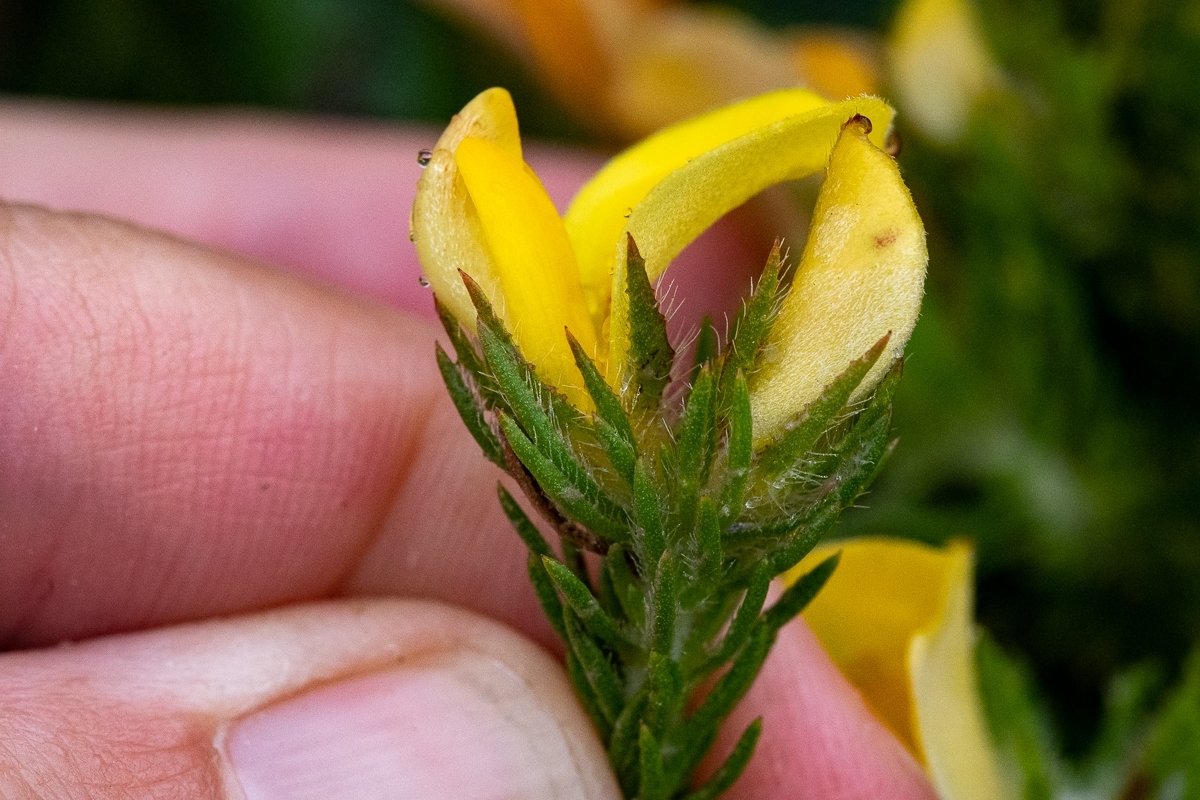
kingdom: Plantae
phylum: Tracheophyta
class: Magnoliopsida
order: Fabales
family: Fabaceae
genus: Aspalathus
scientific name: Aspalathus ciliaris
